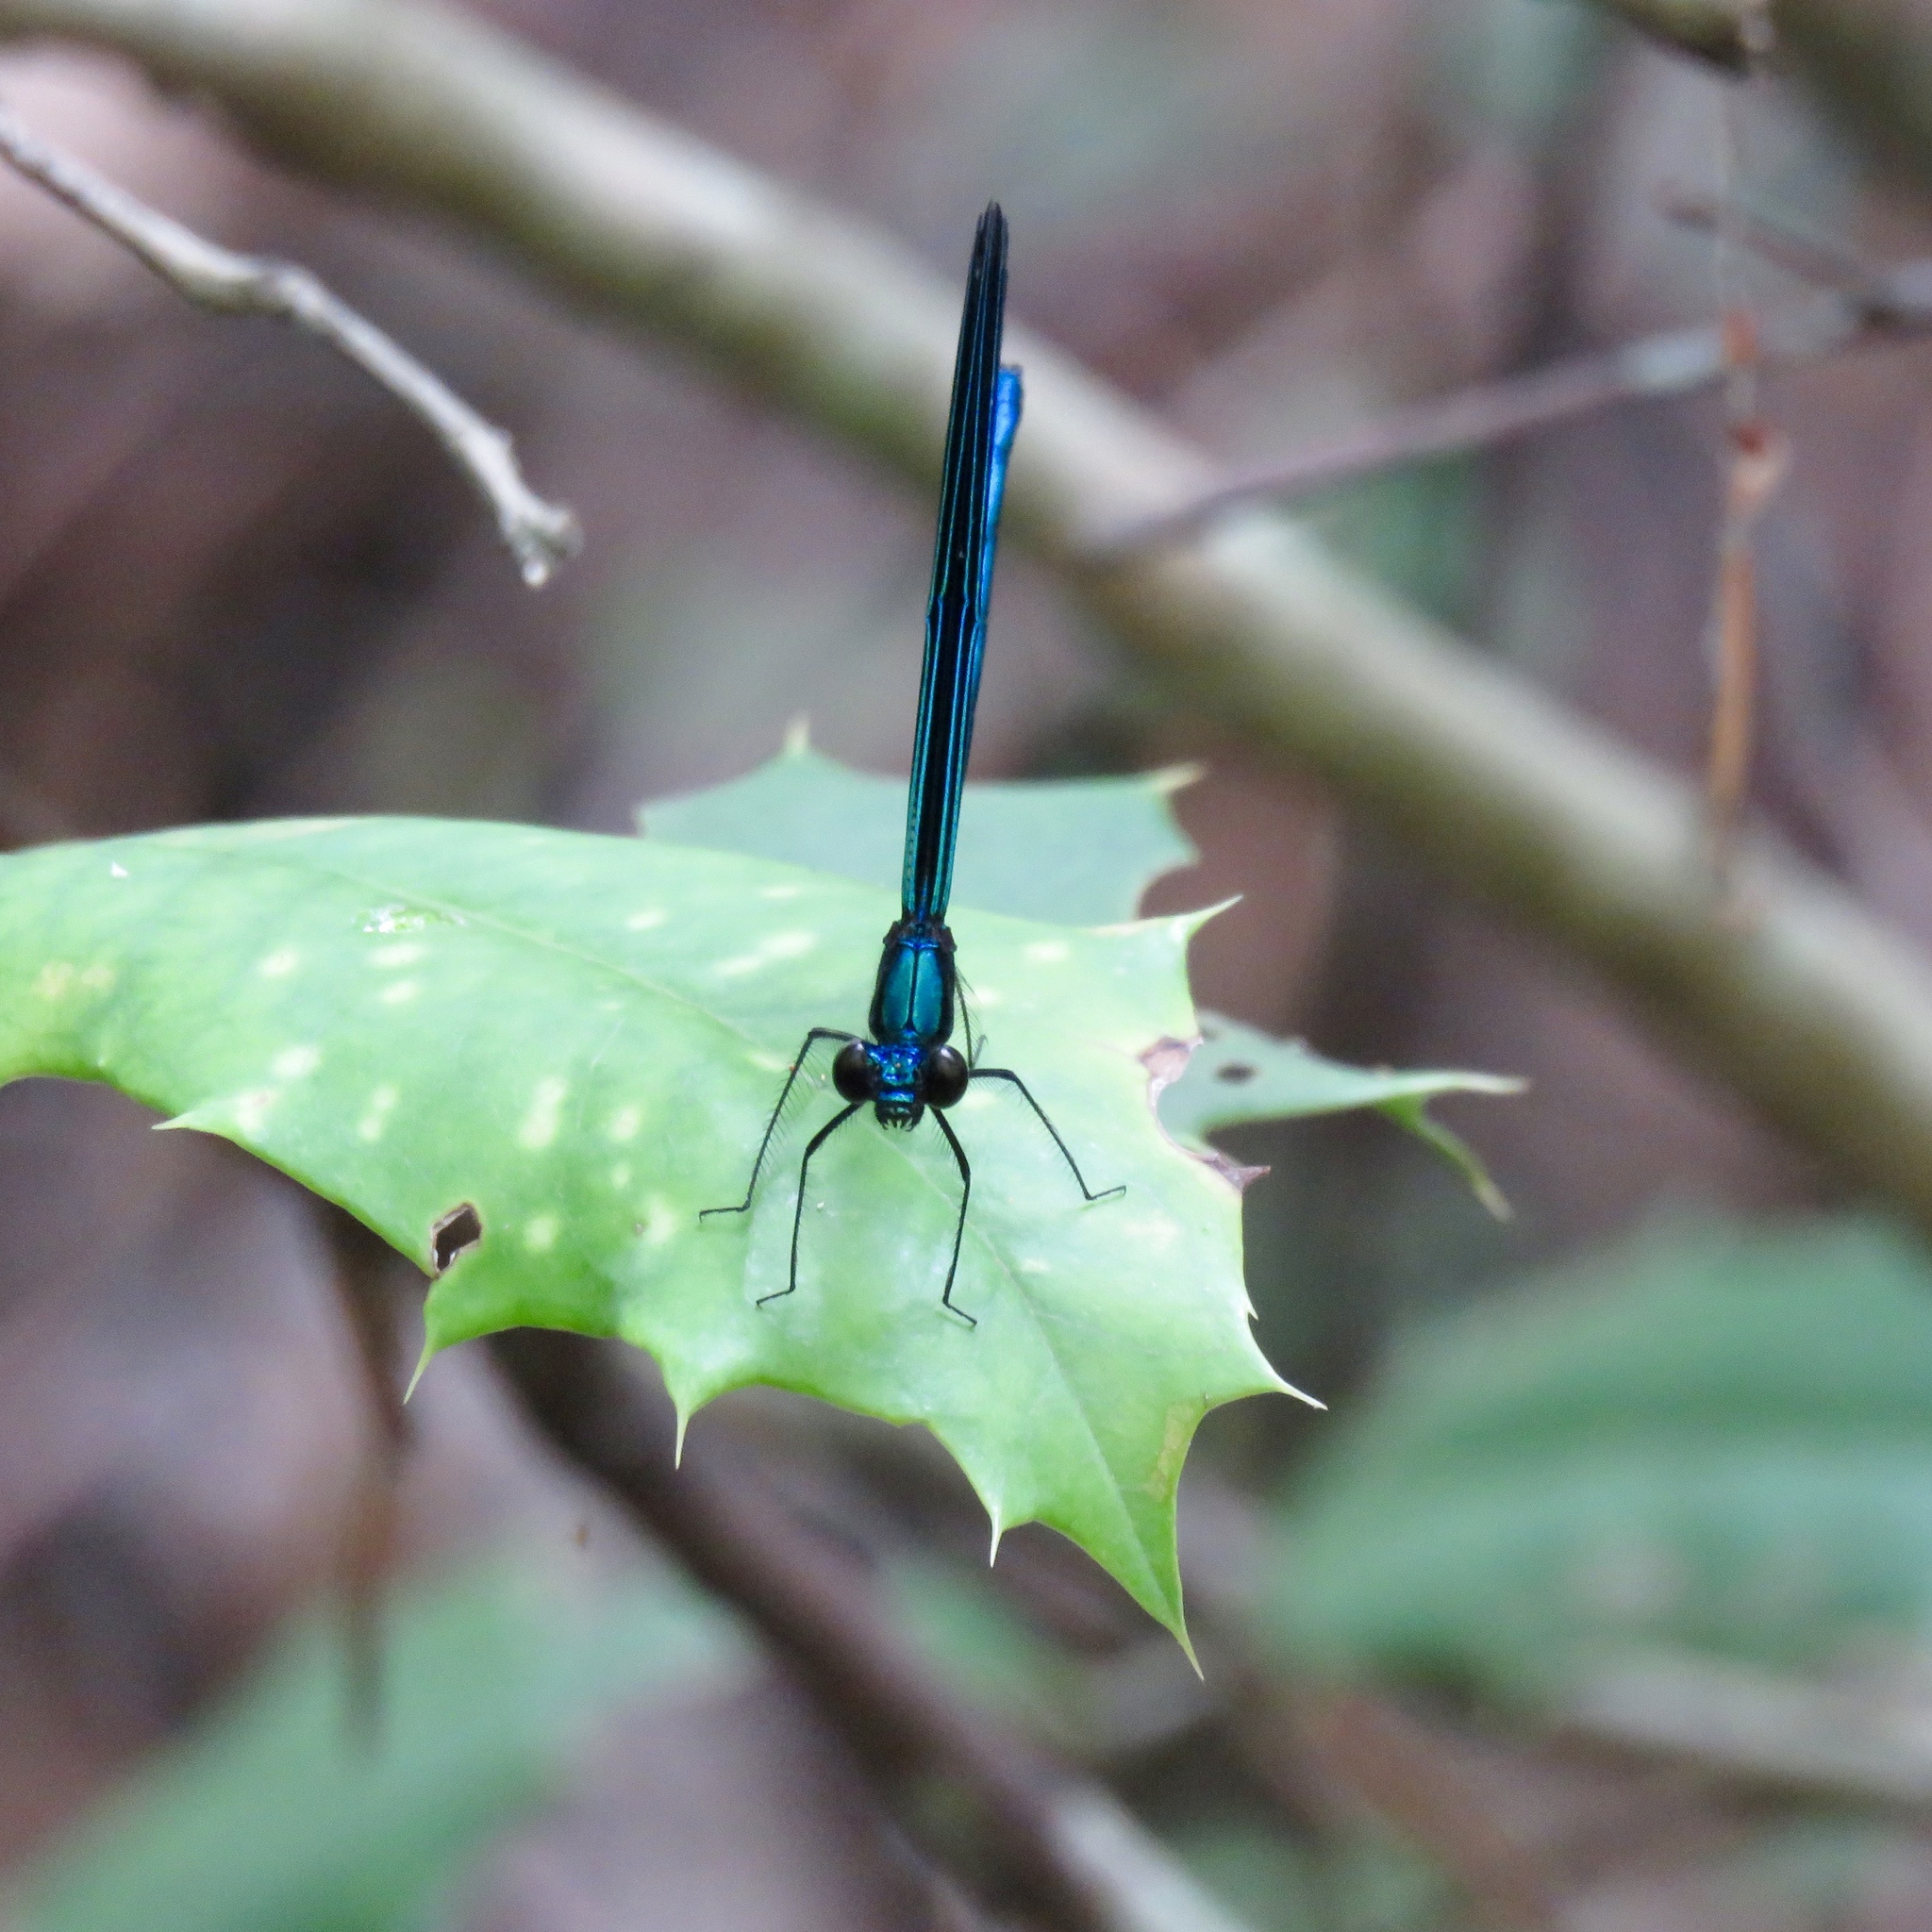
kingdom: Animalia
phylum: Arthropoda
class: Insecta
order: Odonata
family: Calopterygidae
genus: Calopteryx
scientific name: Calopteryx maculata
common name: Ebony jewelwing
